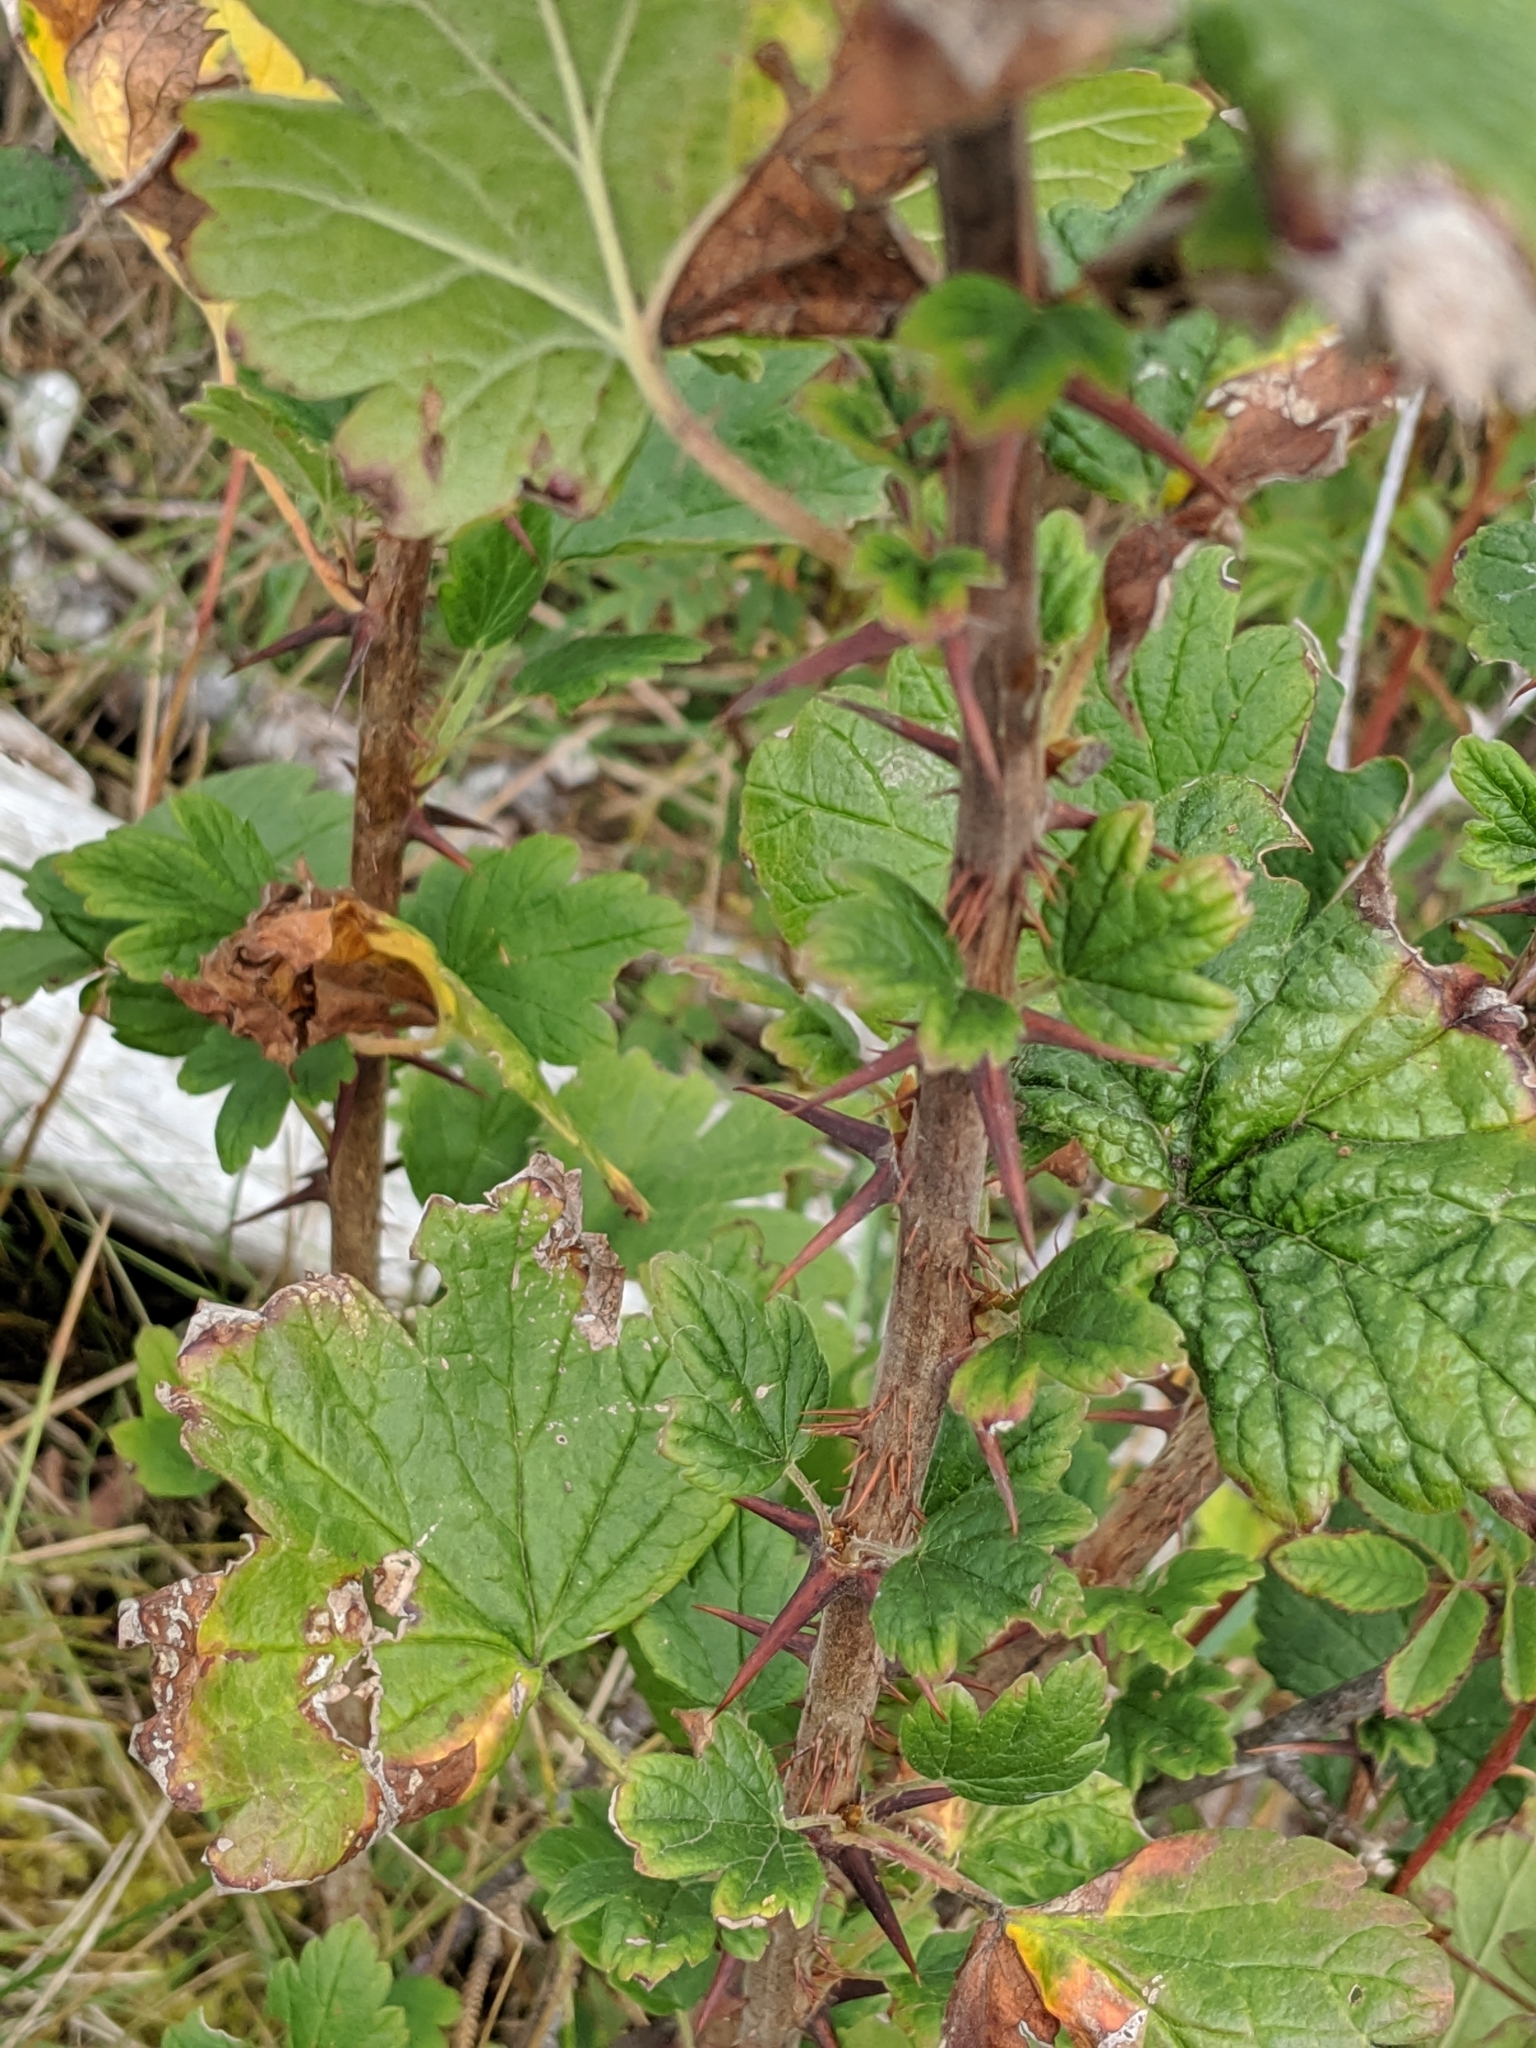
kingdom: Plantae
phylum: Tracheophyta
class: Magnoliopsida
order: Saxifragales
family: Grossulariaceae
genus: Ribes
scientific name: Ribes divaricatum
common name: Wild black gooseberry
